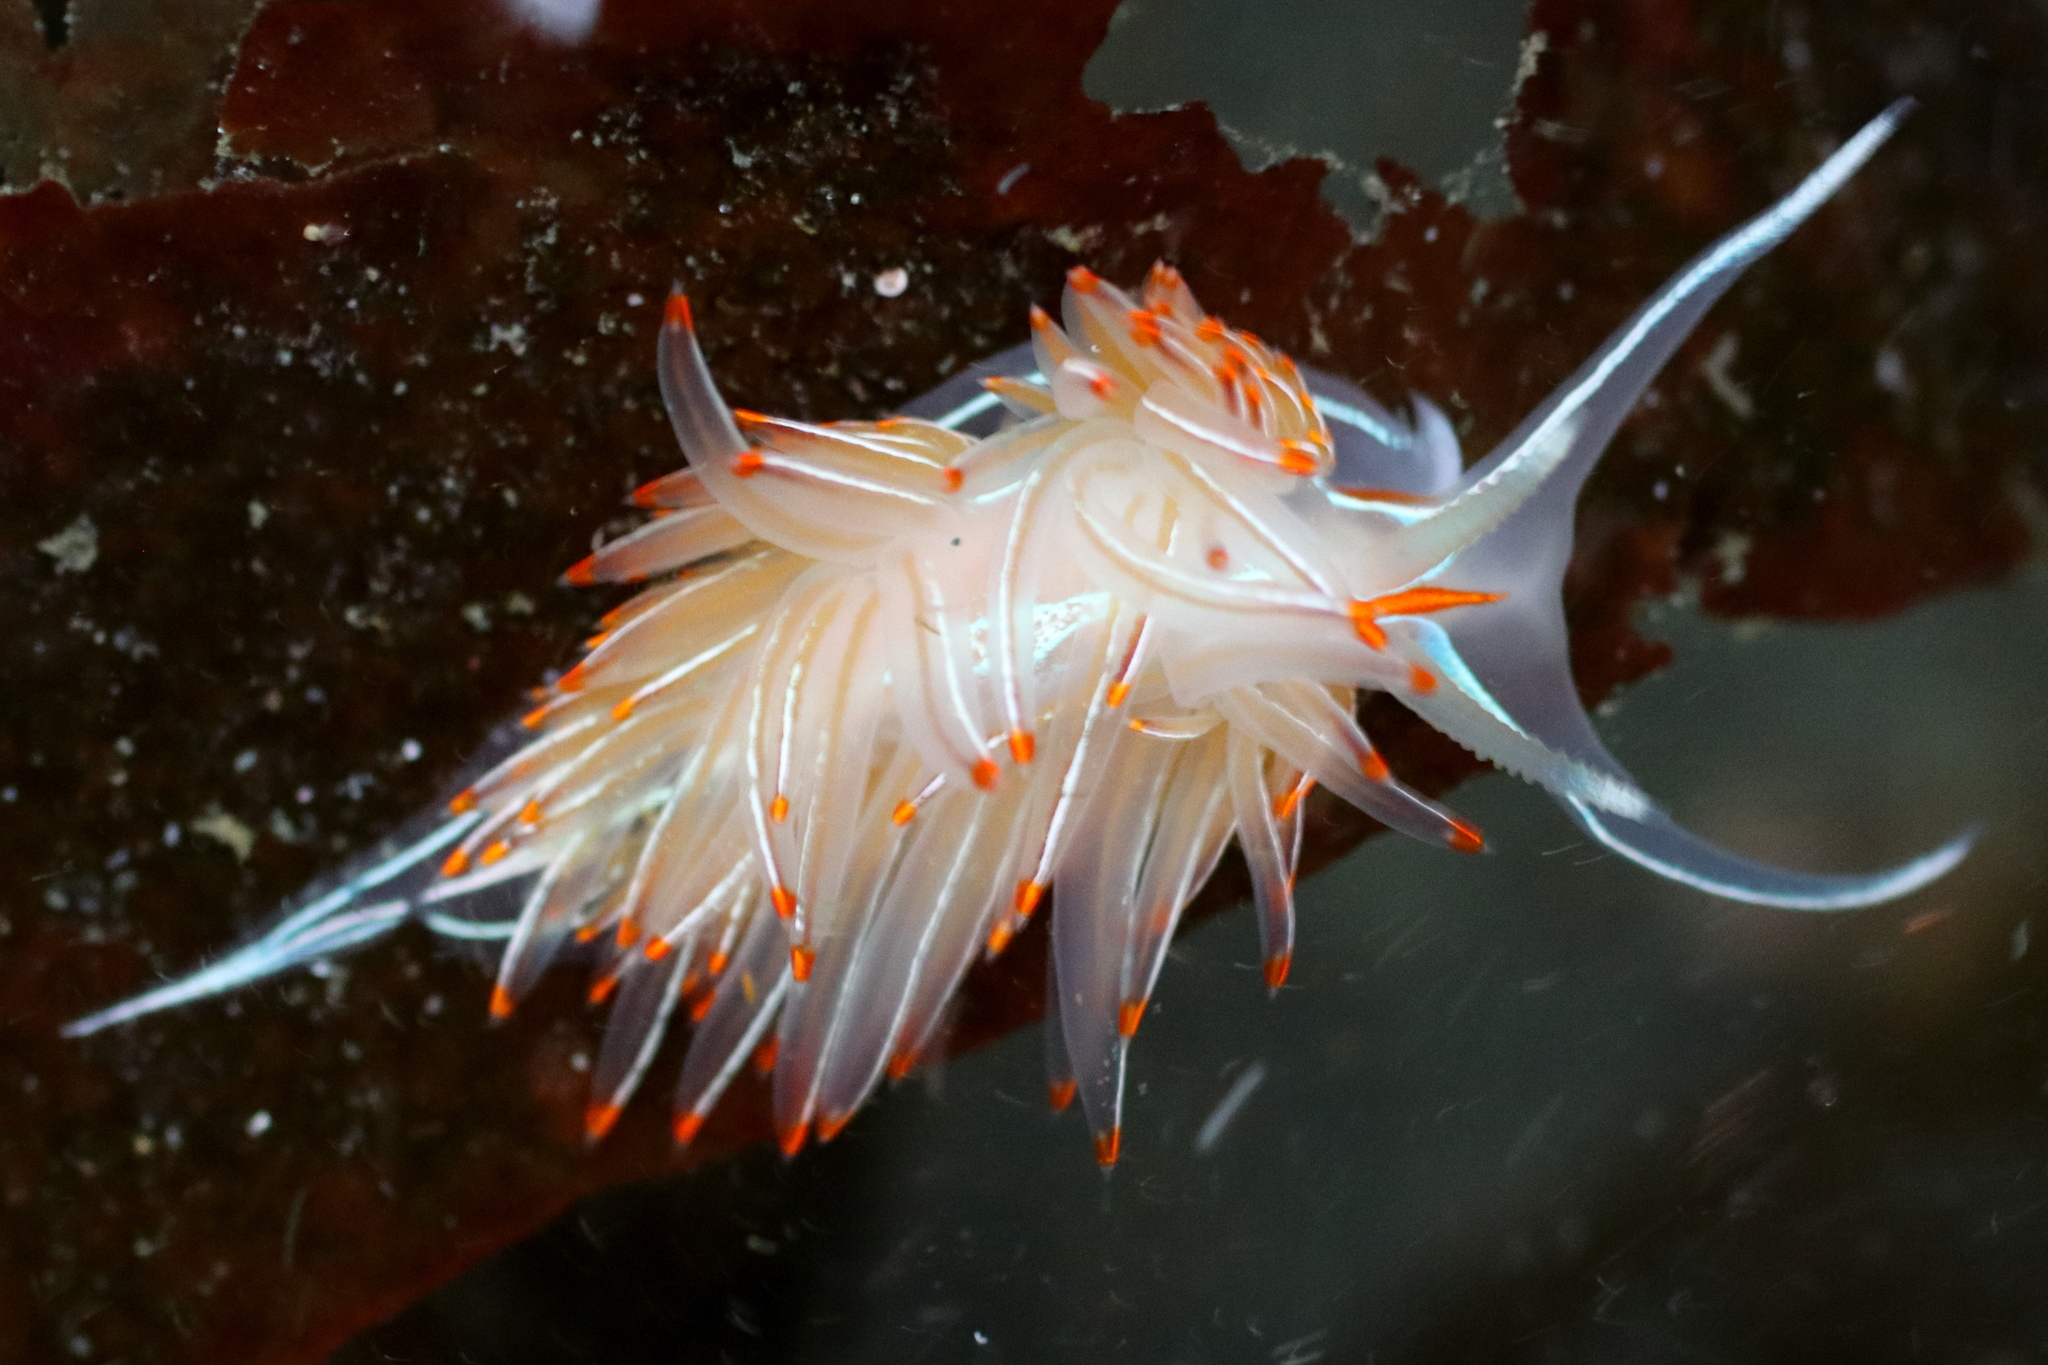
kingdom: Animalia
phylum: Mollusca
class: Gastropoda
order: Nudibranchia
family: Myrrhinidae
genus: Hermissenda
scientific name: Hermissenda crassicornis
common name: Hermissenda
